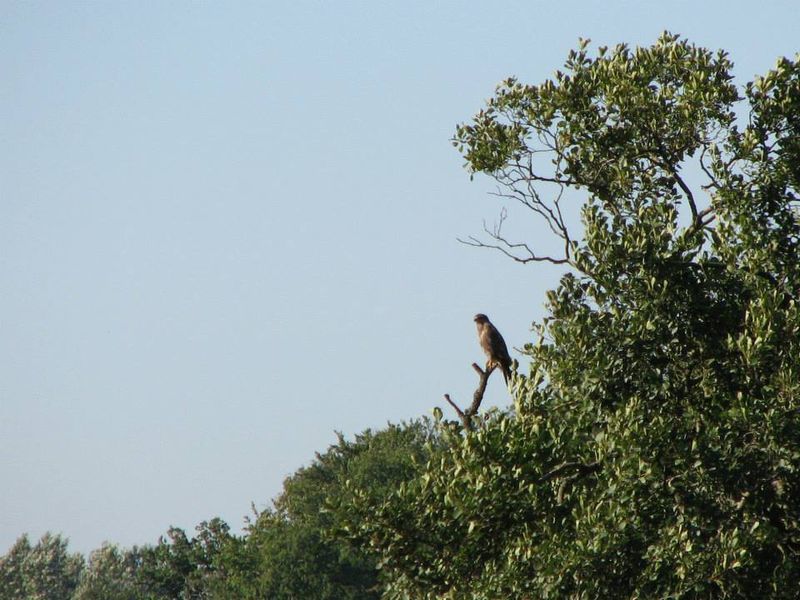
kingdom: Animalia
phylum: Chordata
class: Aves
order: Accipitriformes
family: Accipitridae
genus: Buteo
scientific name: Buteo buteo
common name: Common buzzard
